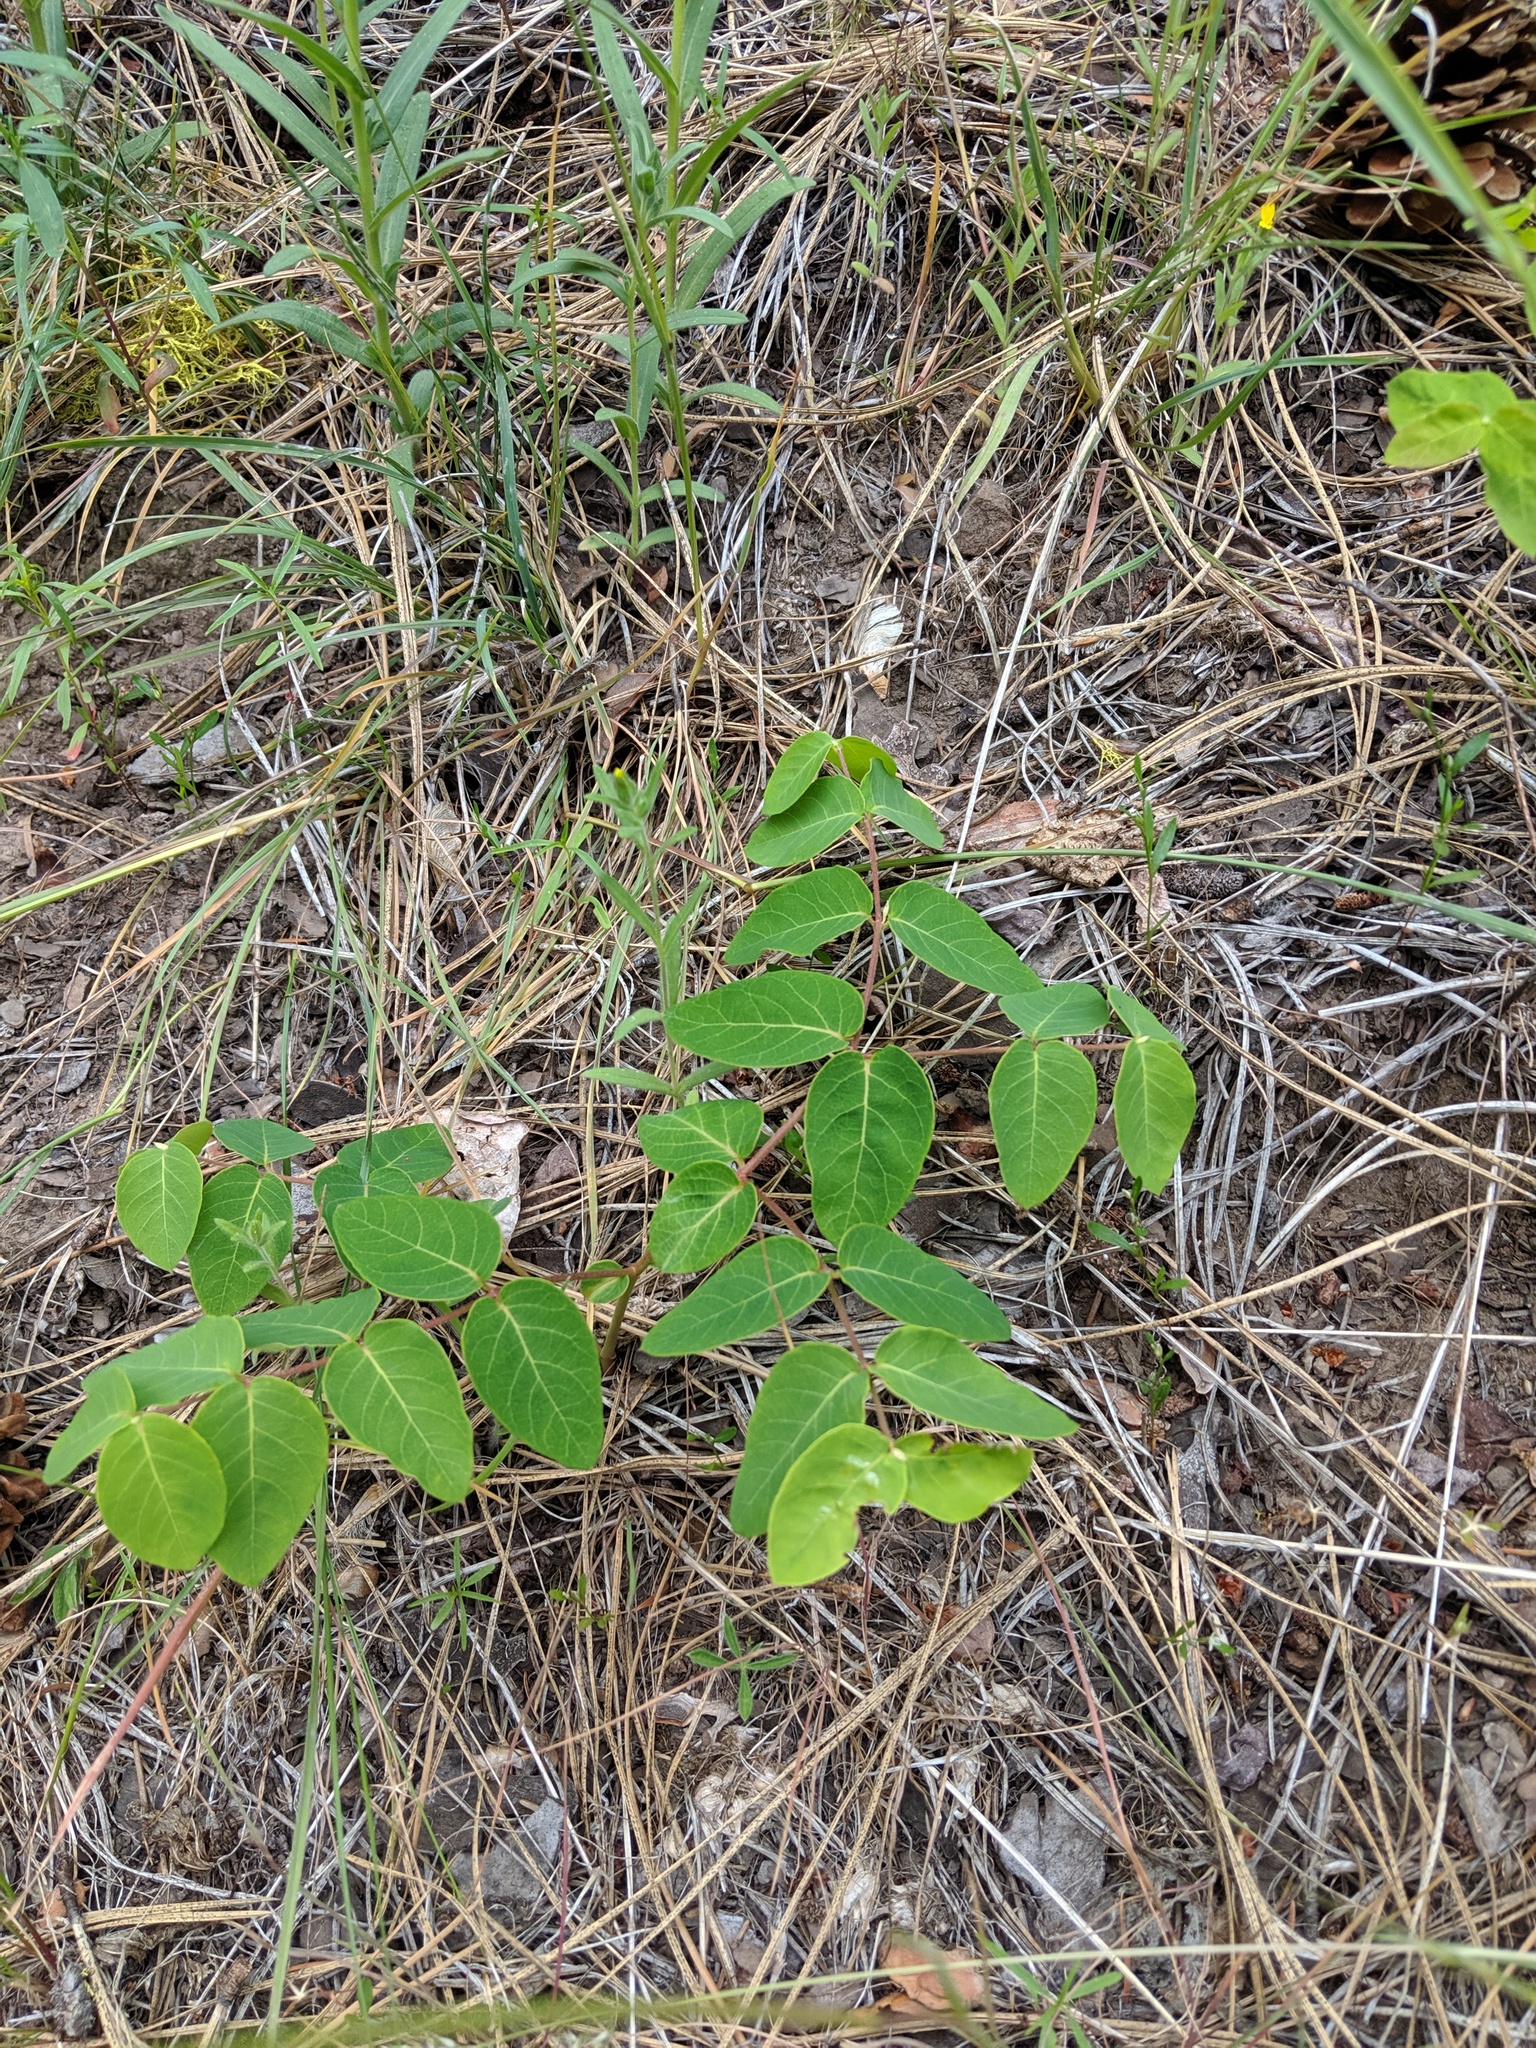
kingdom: Plantae
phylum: Tracheophyta
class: Magnoliopsida
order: Gentianales
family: Apocynaceae
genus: Apocynum
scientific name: Apocynum androsaemifolium
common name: Spreading dogbane
